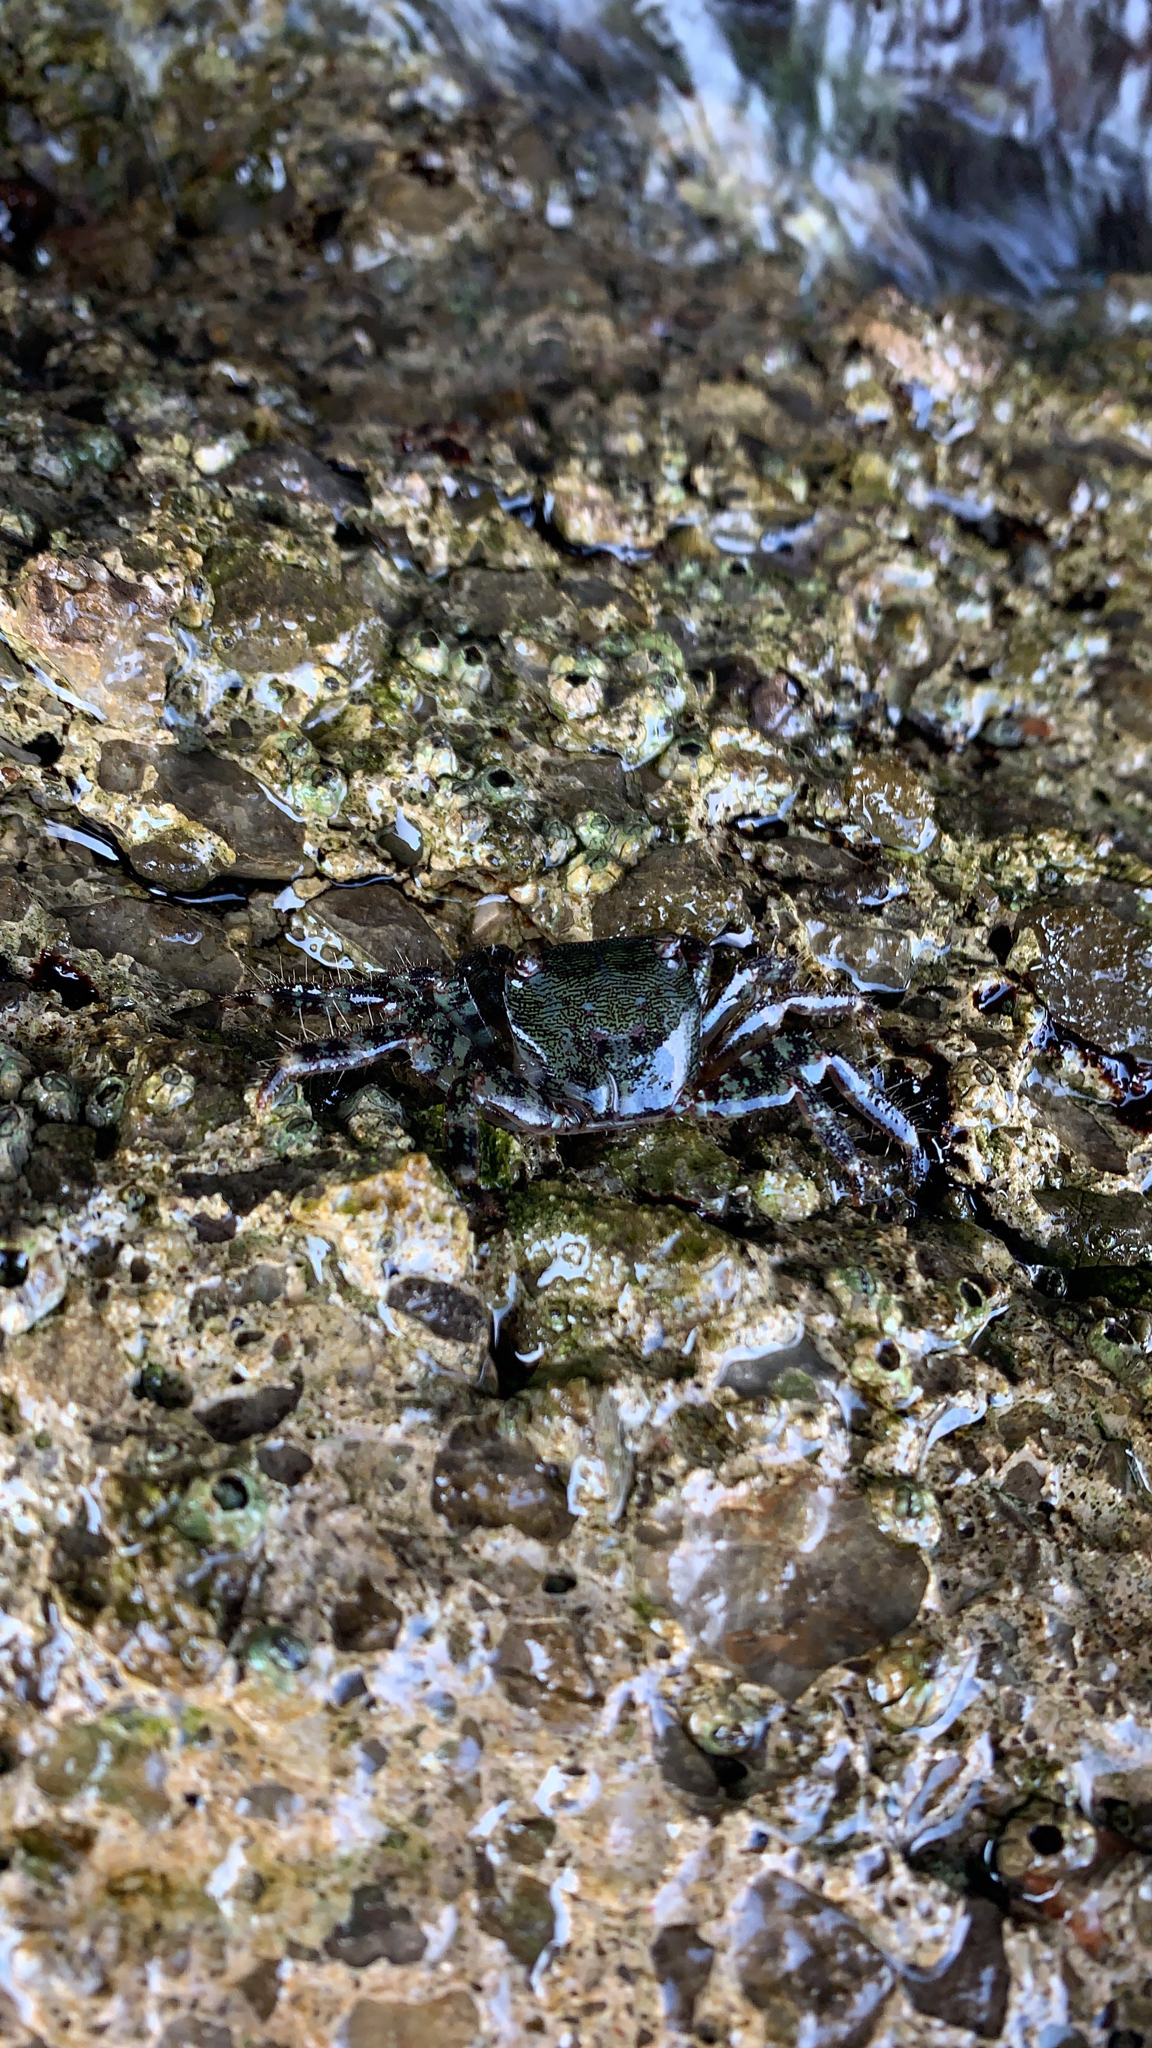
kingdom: Animalia
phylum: Arthropoda
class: Malacostraca
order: Decapoda
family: Grapsidae
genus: Pachygrapsus
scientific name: Pachygrapsus marmoratus
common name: Marbled rock crab
